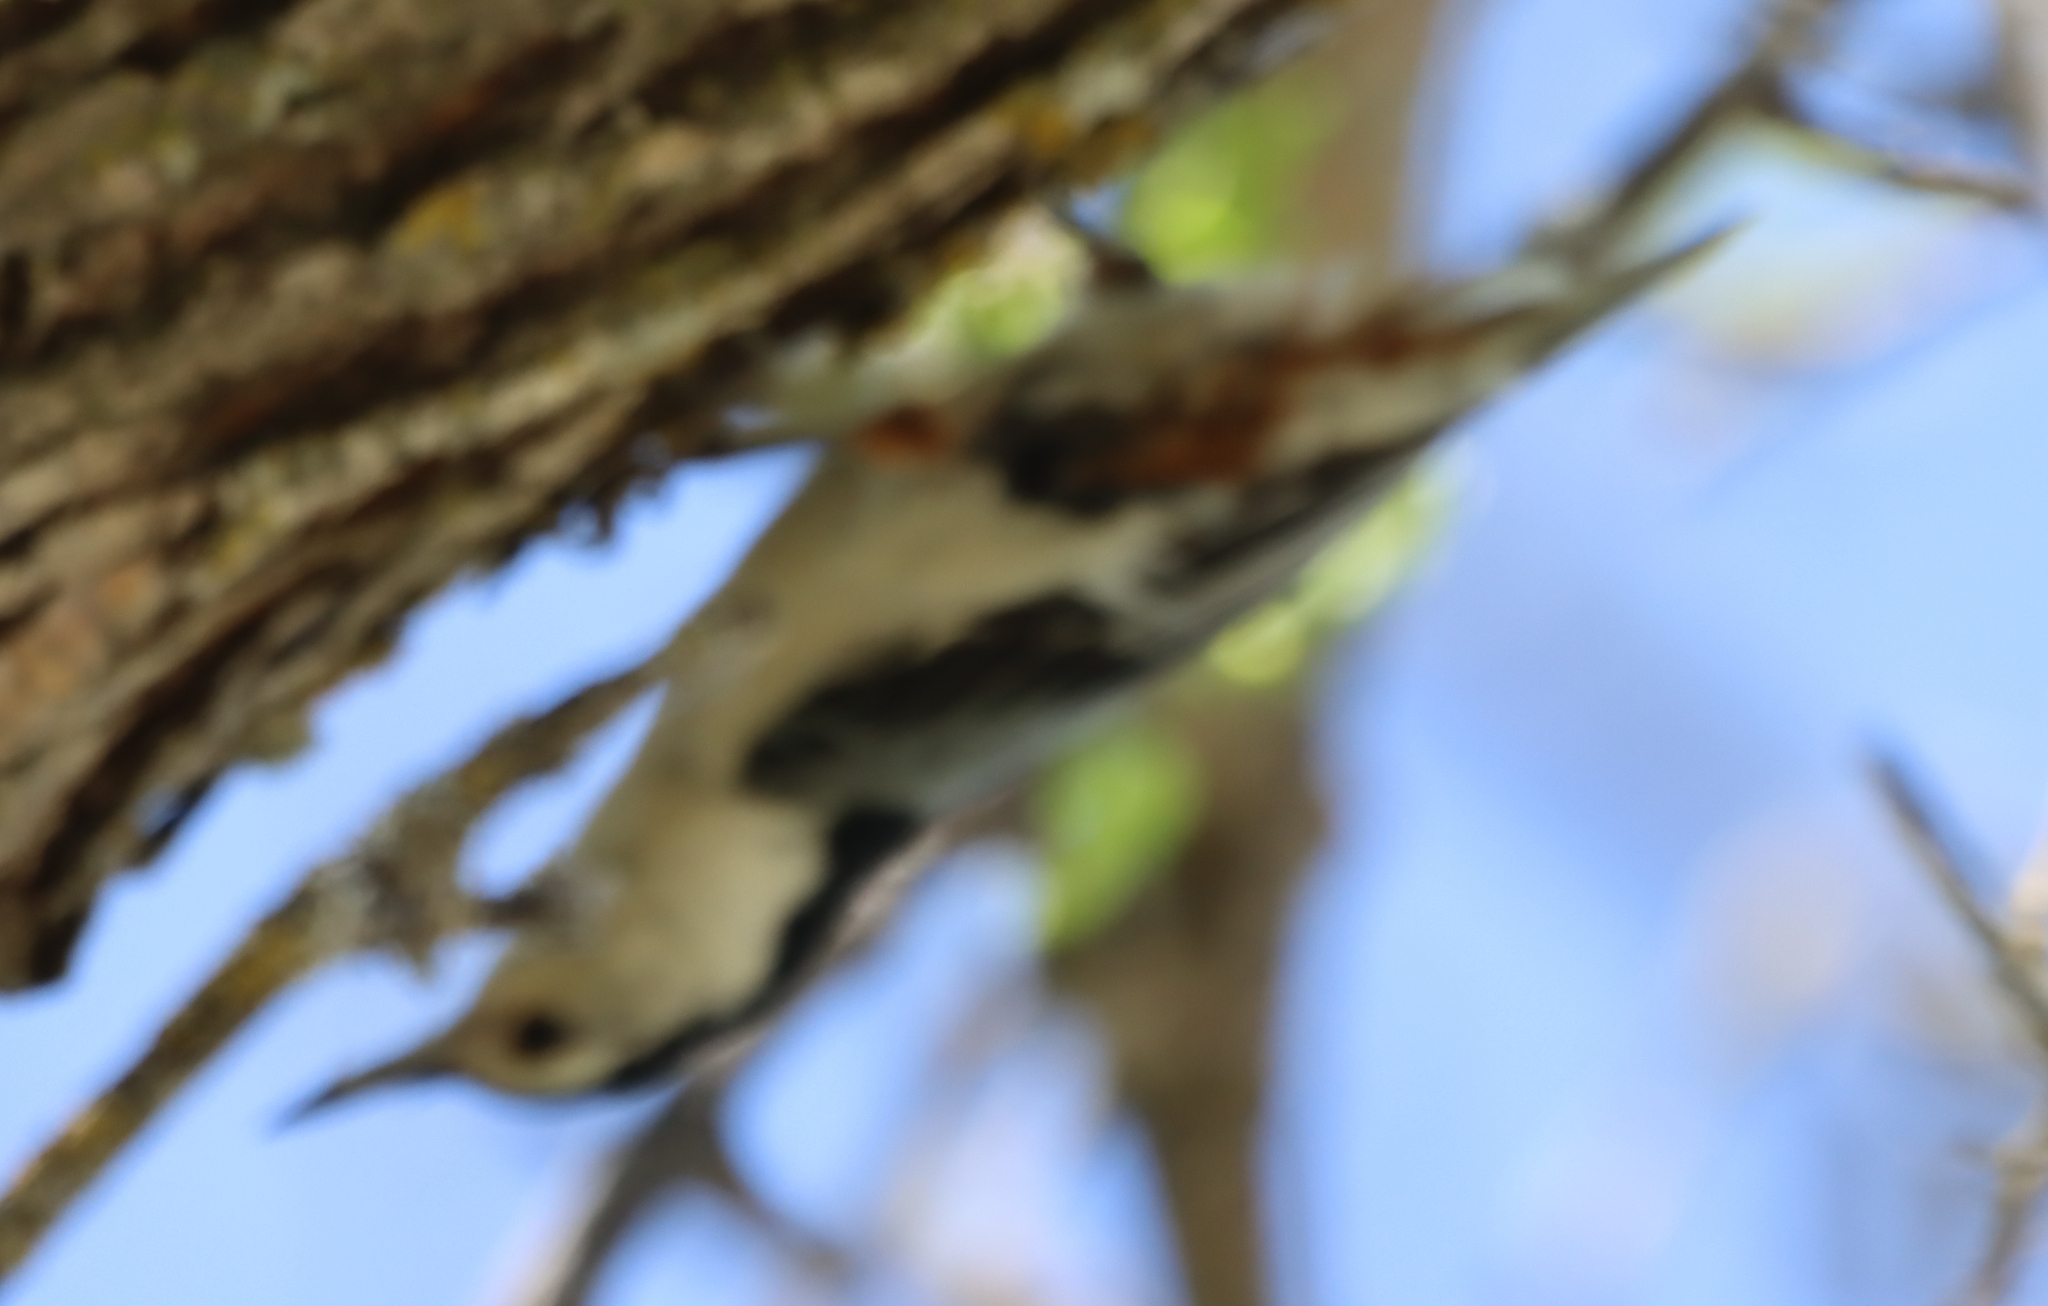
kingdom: Animalia
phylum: Chordata
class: Aves
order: Passeriformes
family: Sittidae
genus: Sitta
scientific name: Sitta carolinensis
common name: White-breasted nuthatch
